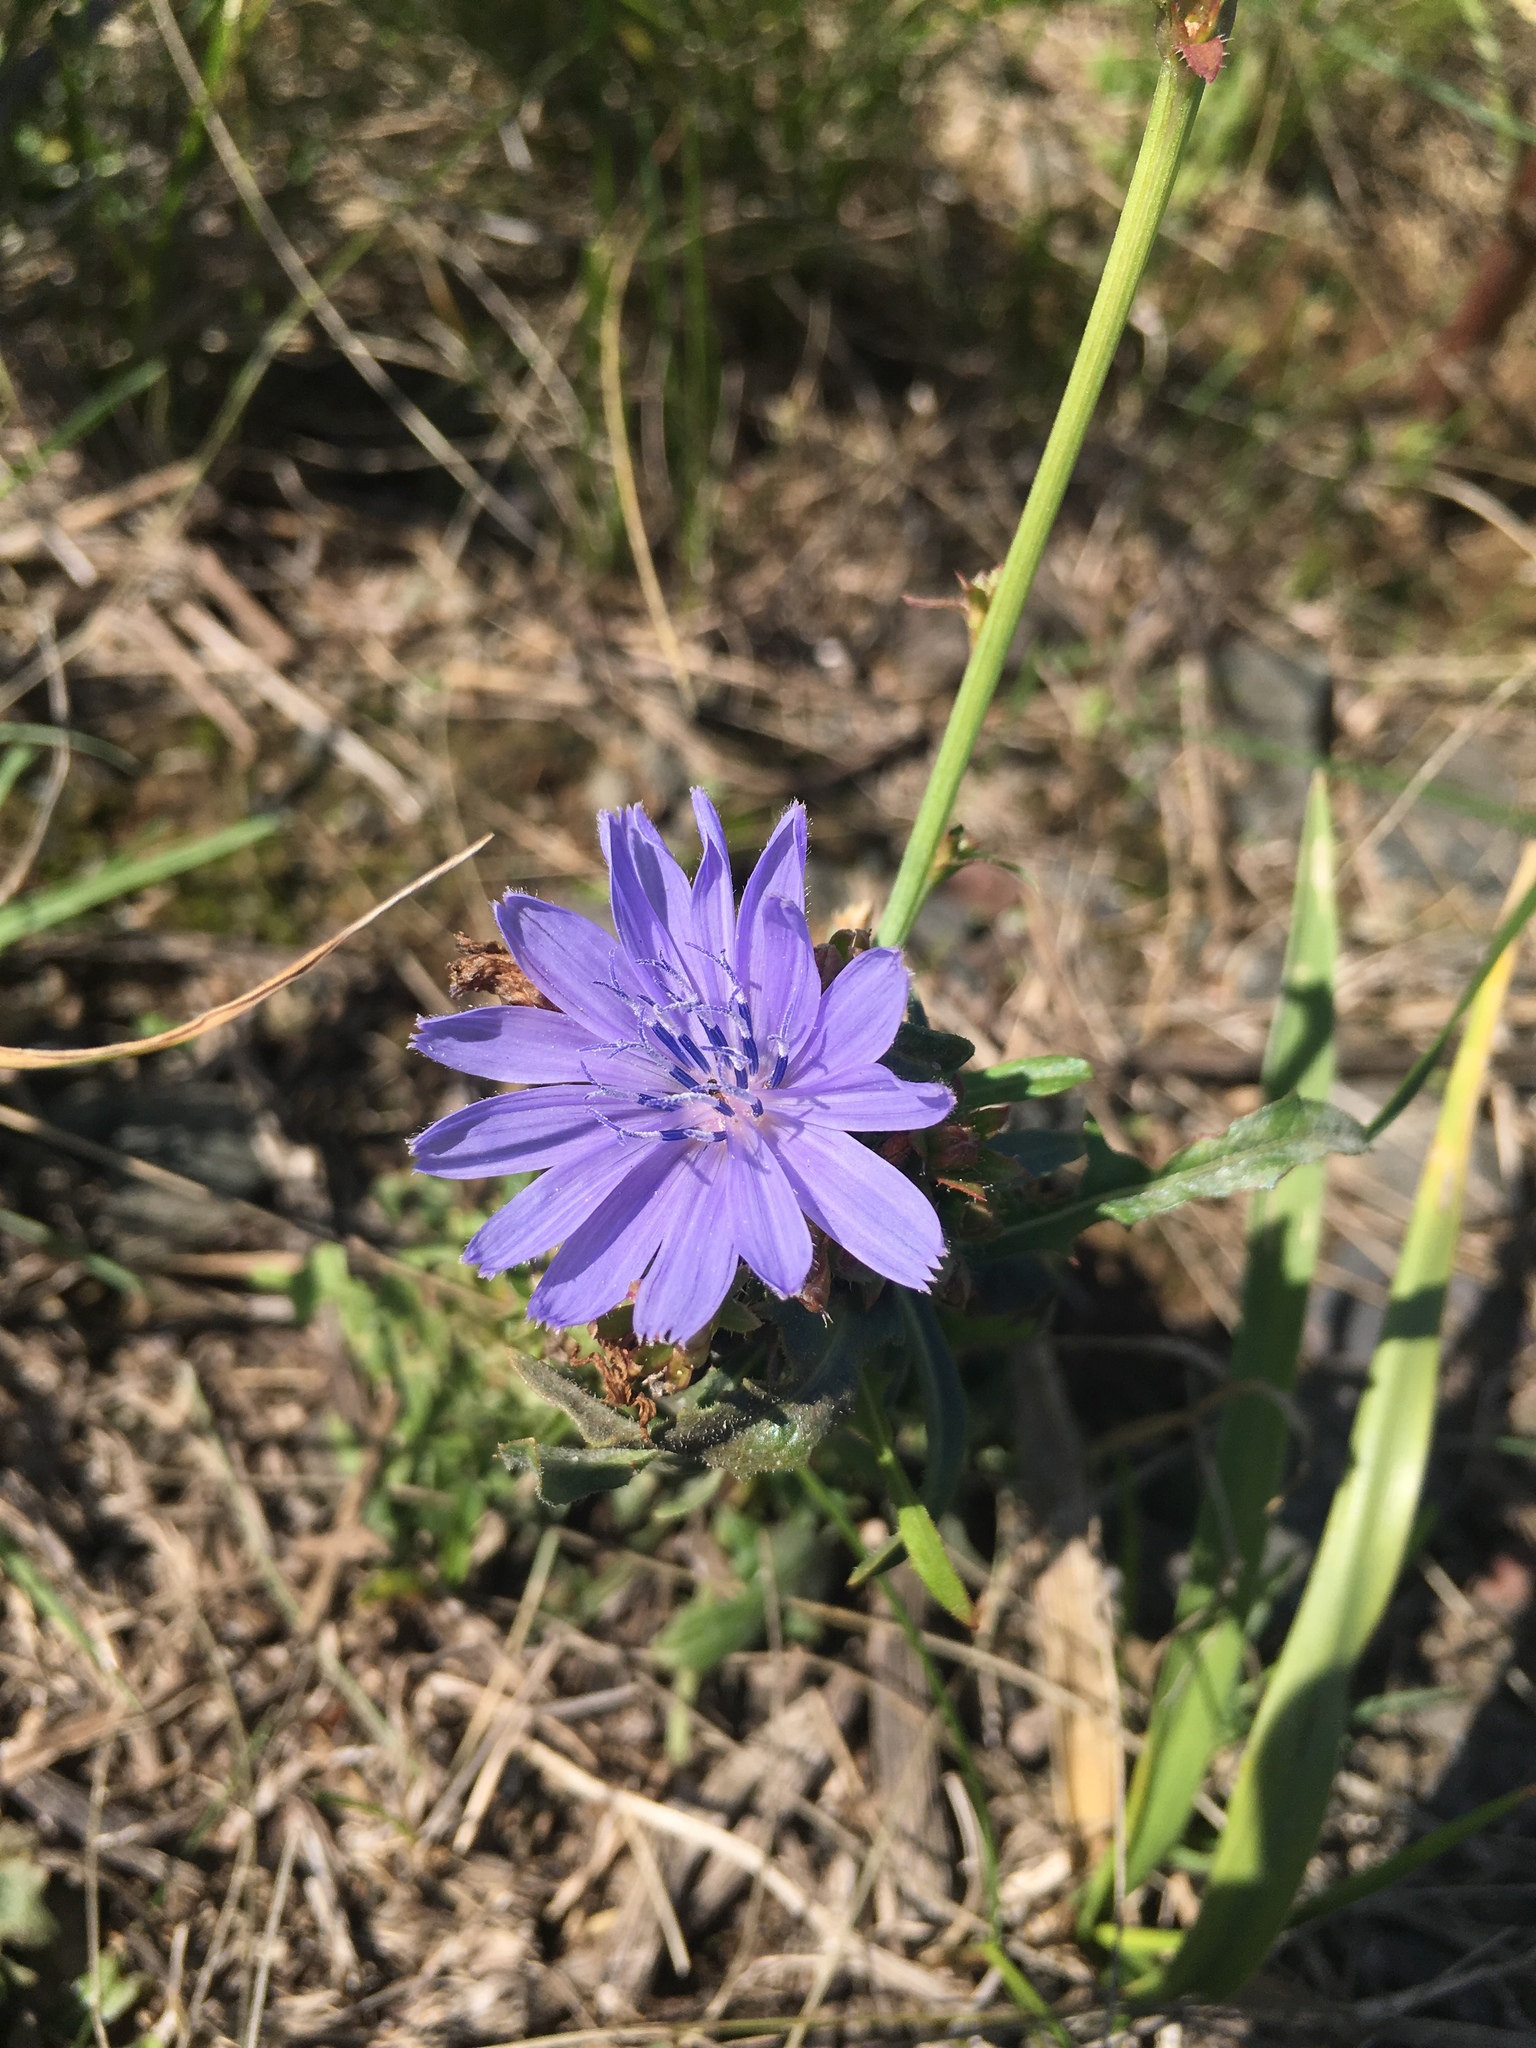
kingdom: Plantae
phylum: Tracheophyta
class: Magnoliopsida
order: Asterales
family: Asteraceae
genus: Cichorium
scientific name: Cichorium intybus
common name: Chicory
